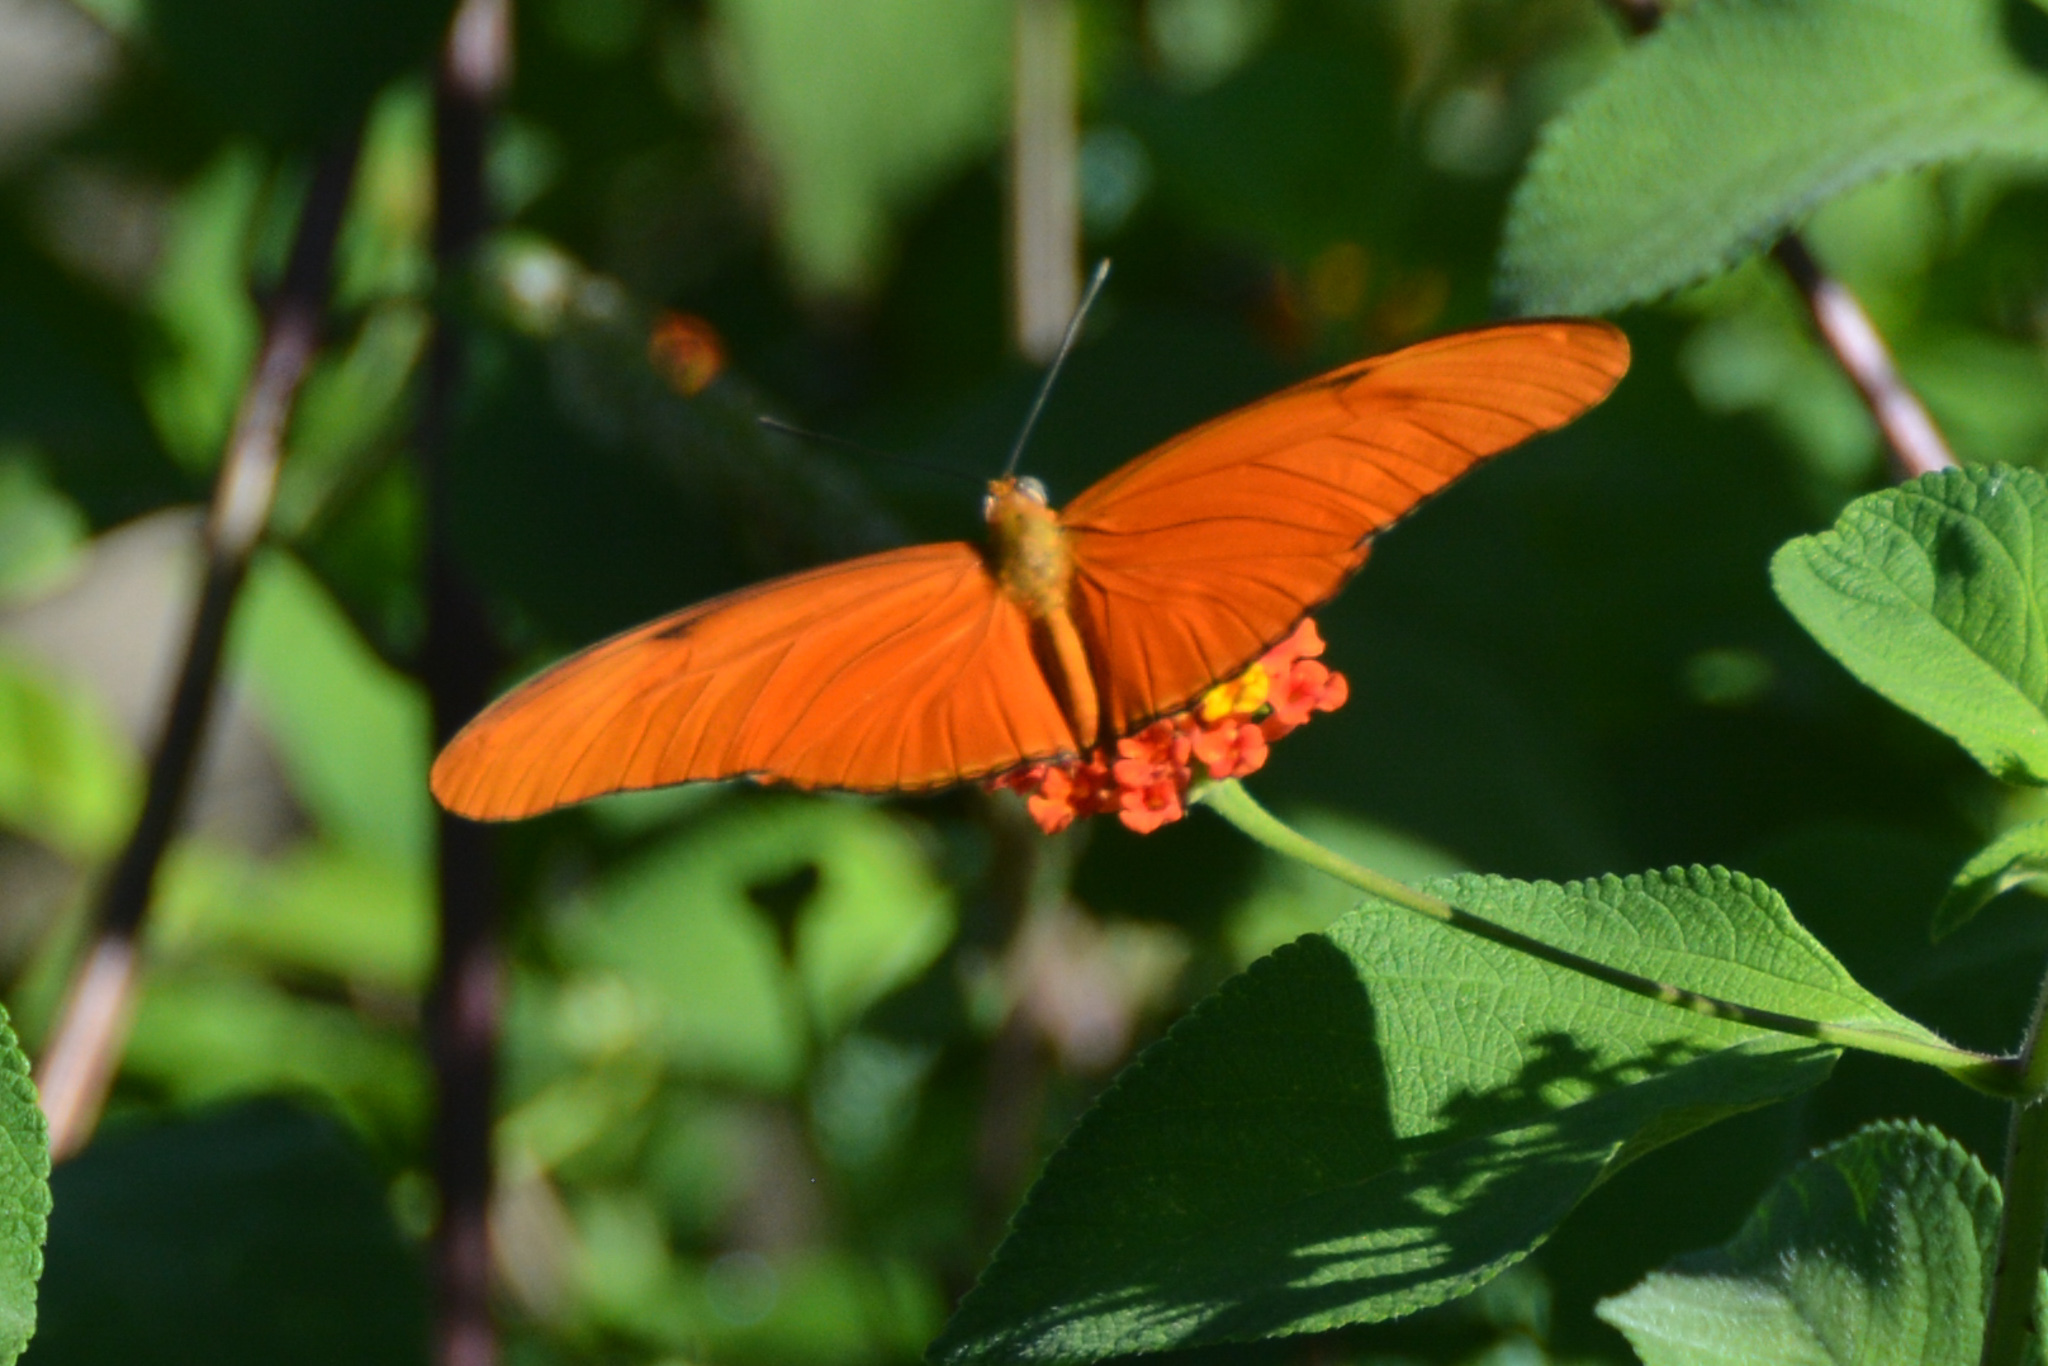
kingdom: Animalia
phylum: Arthropoda
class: Insecta
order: Lepidoptera
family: Nymphalidae
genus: Dryas
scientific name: Dryas iulia
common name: Flambeau
